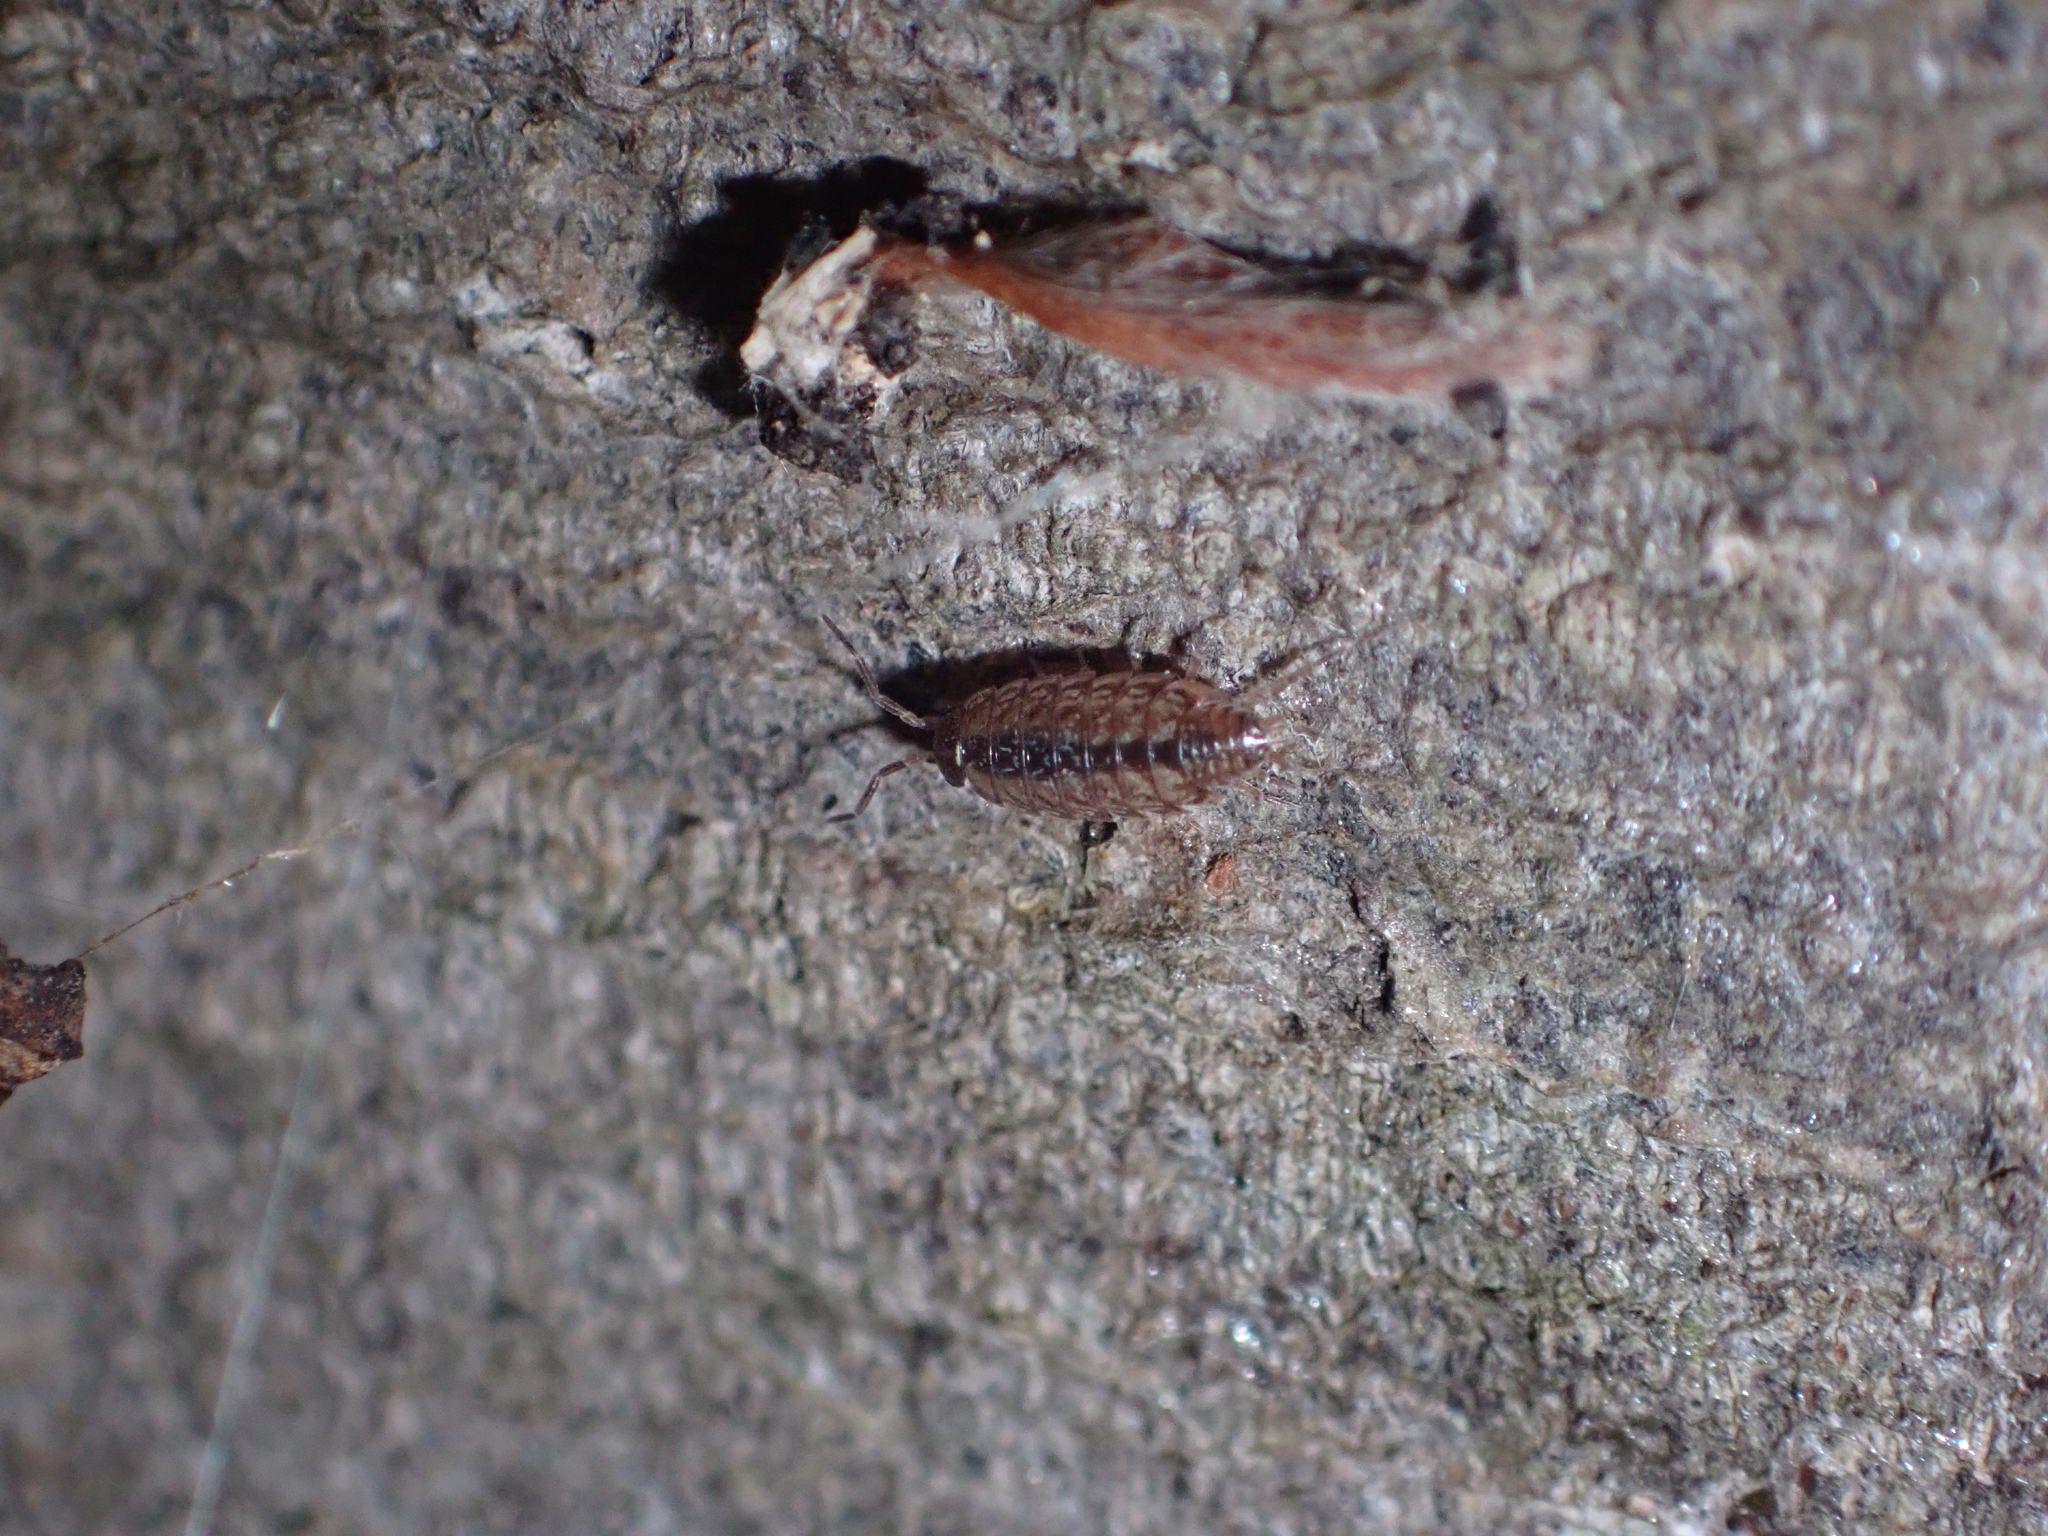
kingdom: Animalia
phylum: Arthropoda
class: Malacostraca
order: Isopoda
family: Philosciidae
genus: Philoscia
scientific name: Philoscia muscorum
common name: Common striped woodlouse
